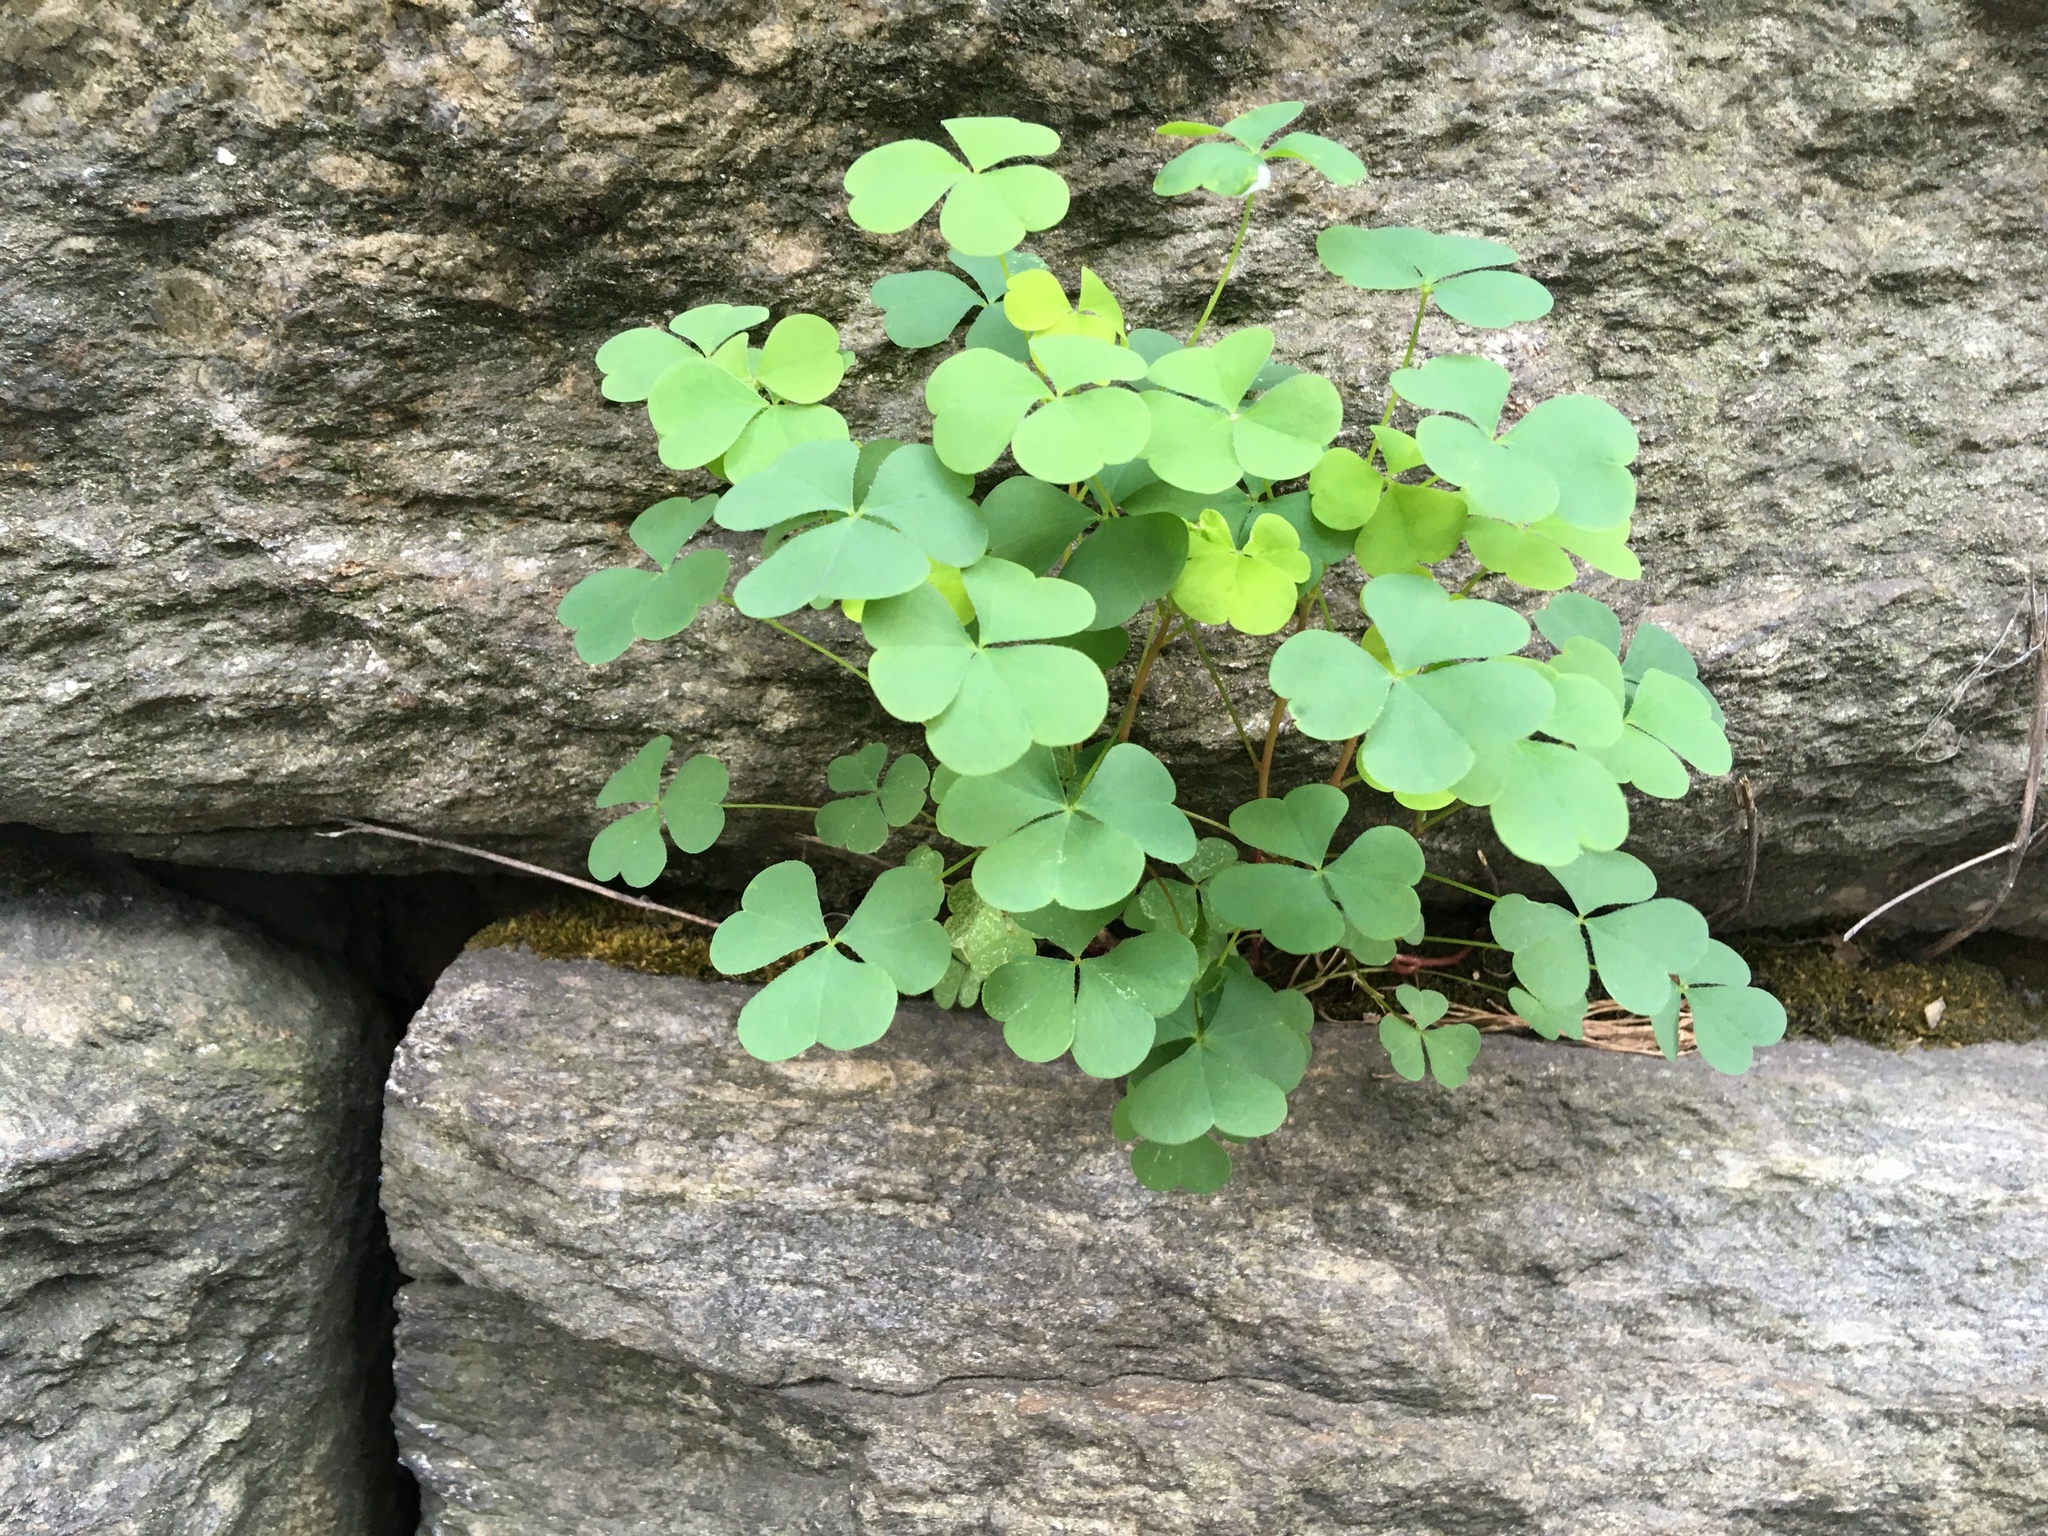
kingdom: Plantae
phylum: Tracheophyta
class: Magnoliopsida
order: Oxalidales
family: Oxalidaceae
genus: Oxalis
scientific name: Oxalis corniculata
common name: Procumbent yellow-sorrel
